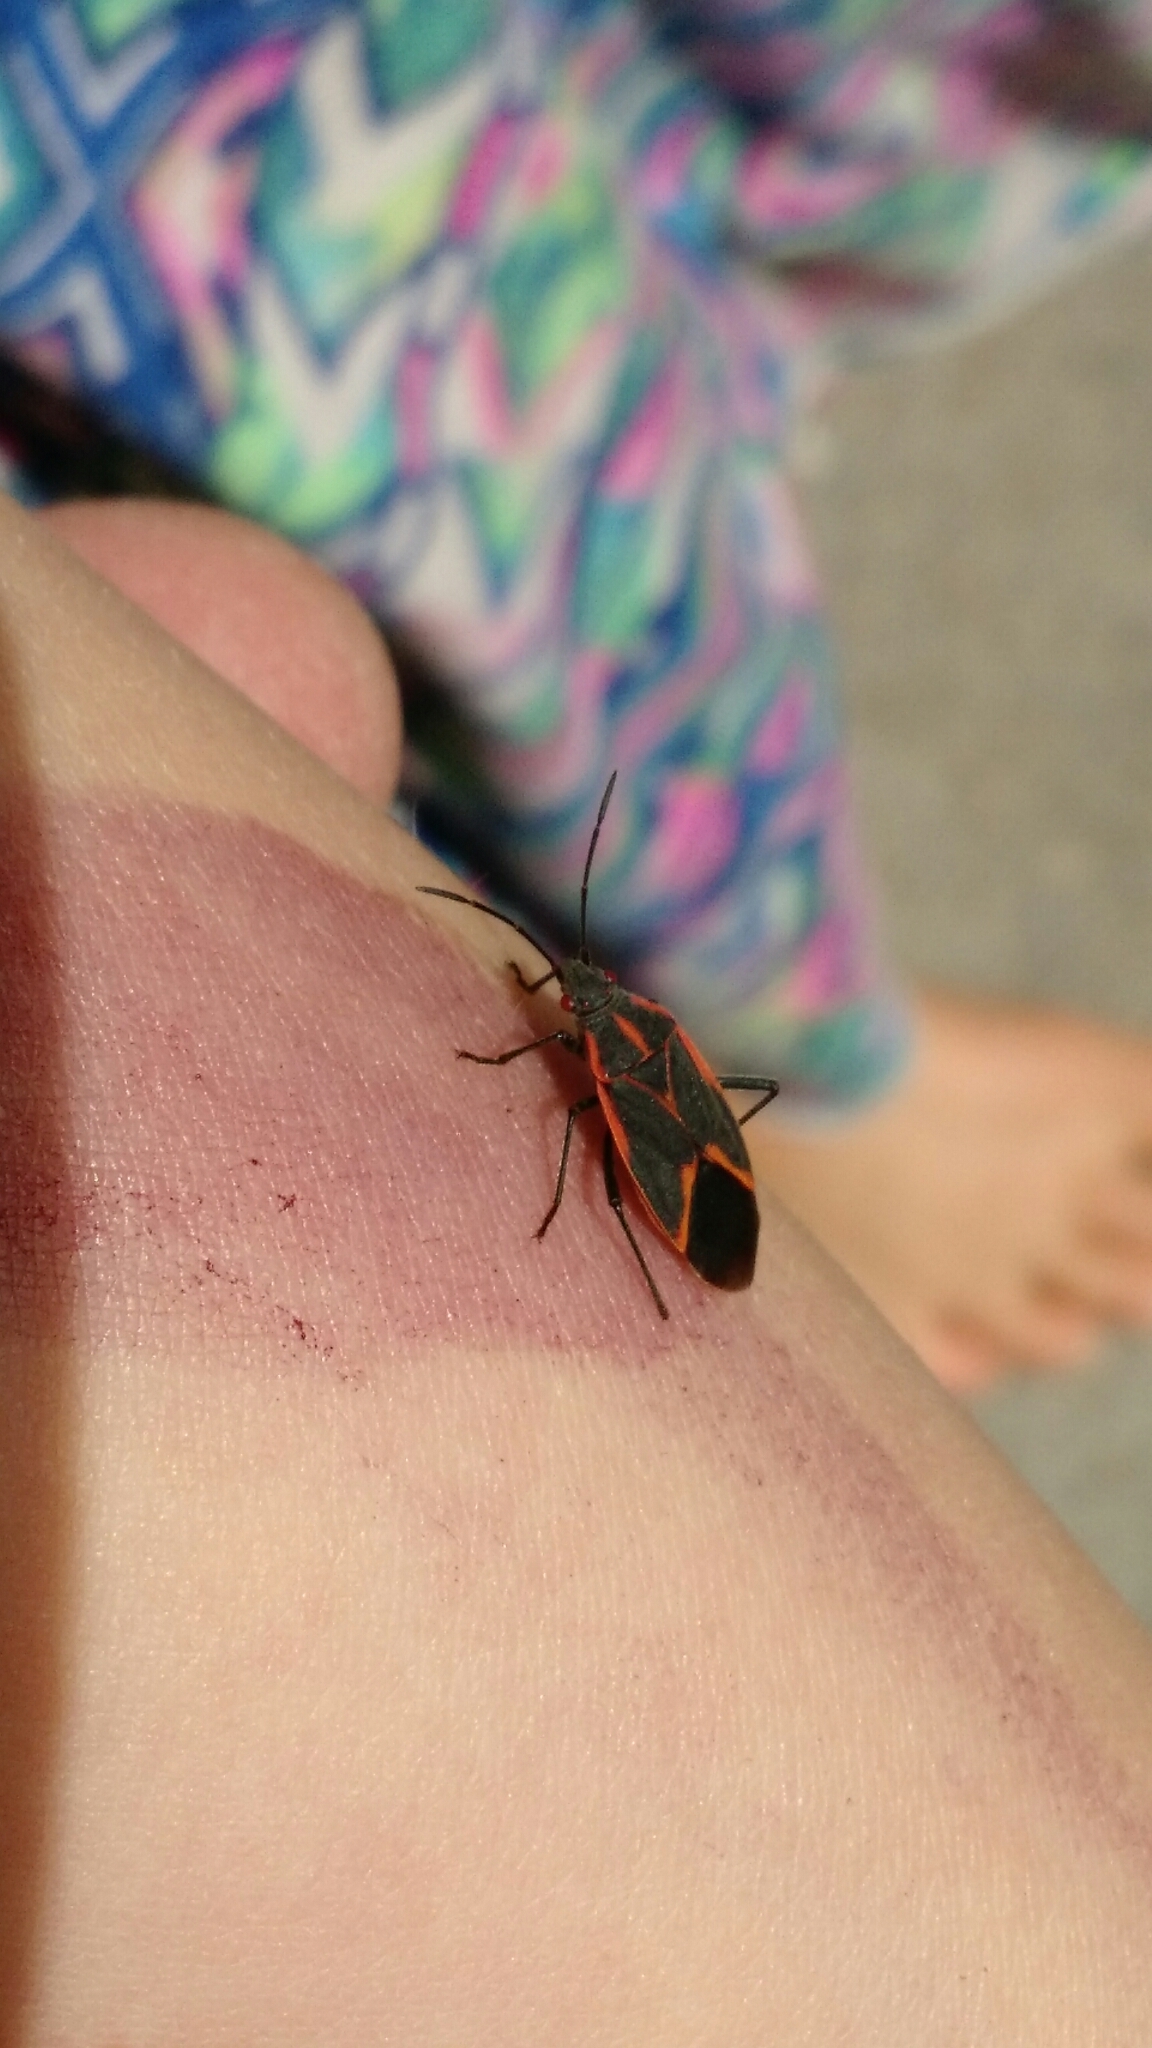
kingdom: Animalia
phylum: Arthropoda
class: Insecta
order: Hemiptera
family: Rhopalidae
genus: Boisea
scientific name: Boisea trivittata
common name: Boxelder bug
